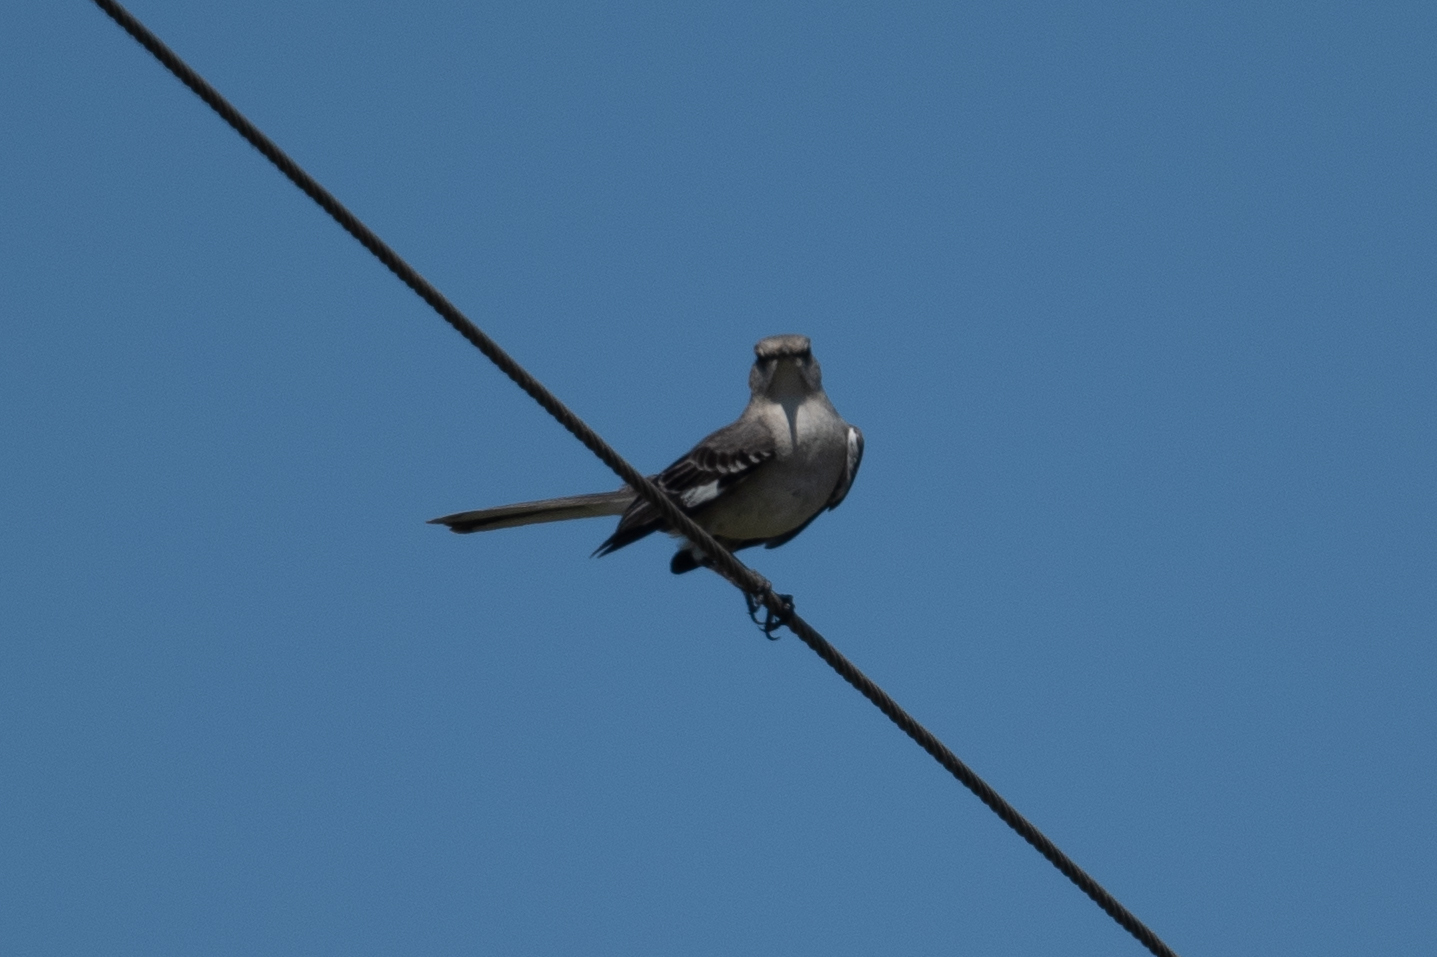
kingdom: Animalia
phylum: Chordata
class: Aves
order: Passeriformes
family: Mimidae
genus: Mimus
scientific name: Mimus polyglottos
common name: Northern mockingbird
